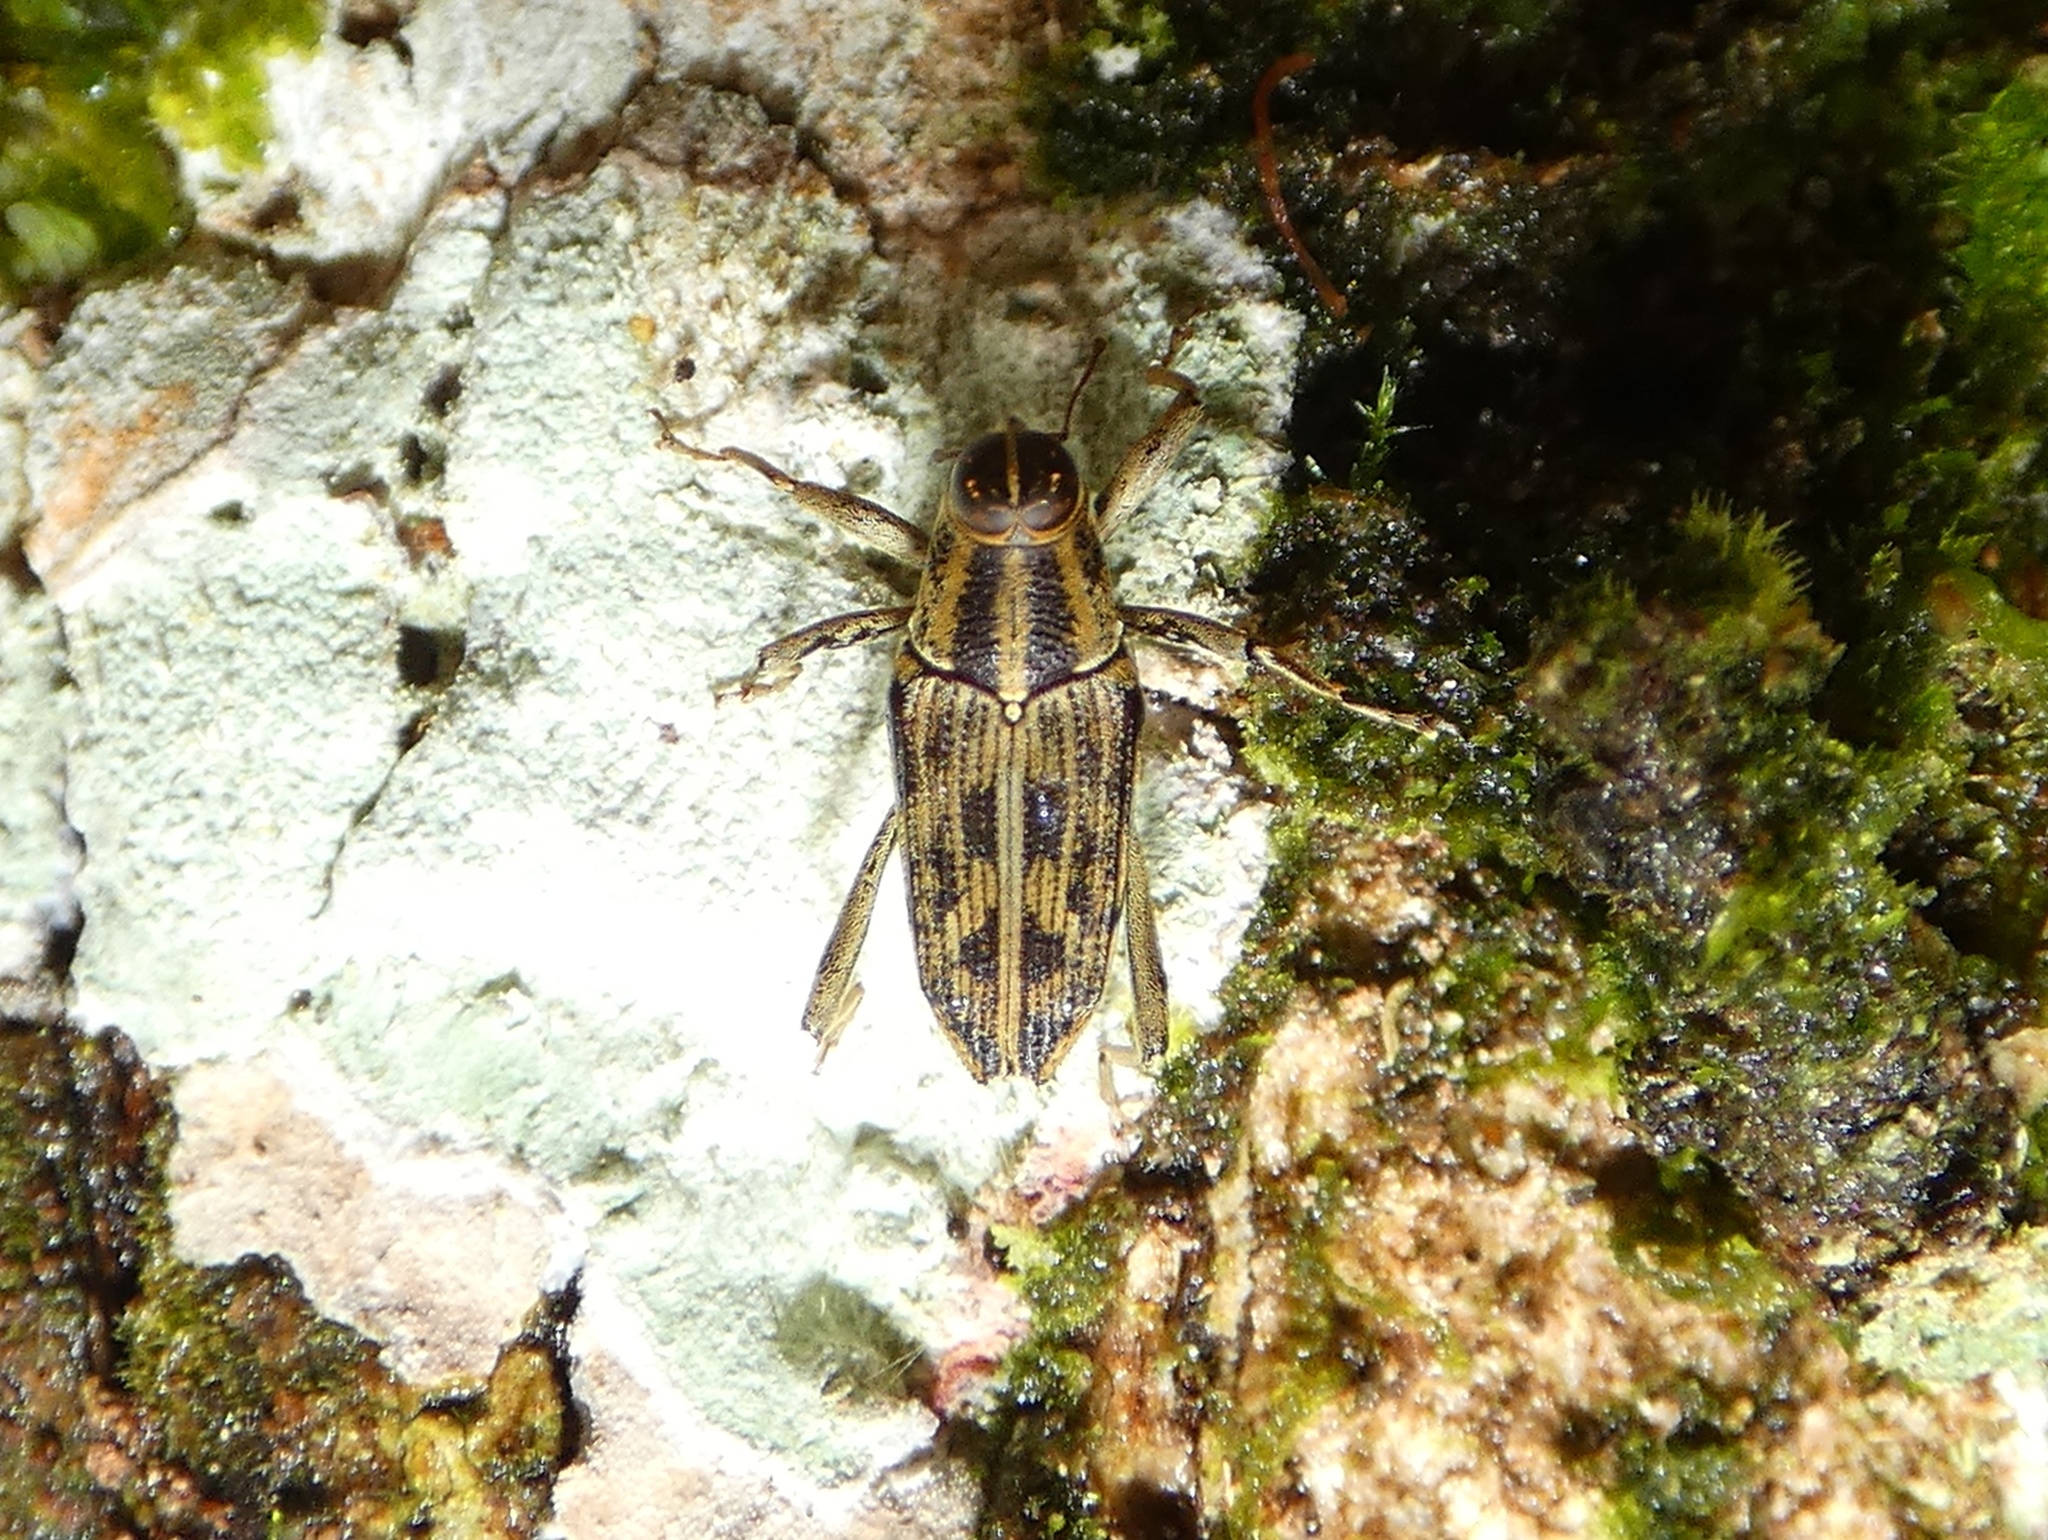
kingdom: Animalia
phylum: Arthropoda
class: Insecta
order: Coleoptera
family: Curculionidae
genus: Copturus
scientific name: Copturus deplanus
